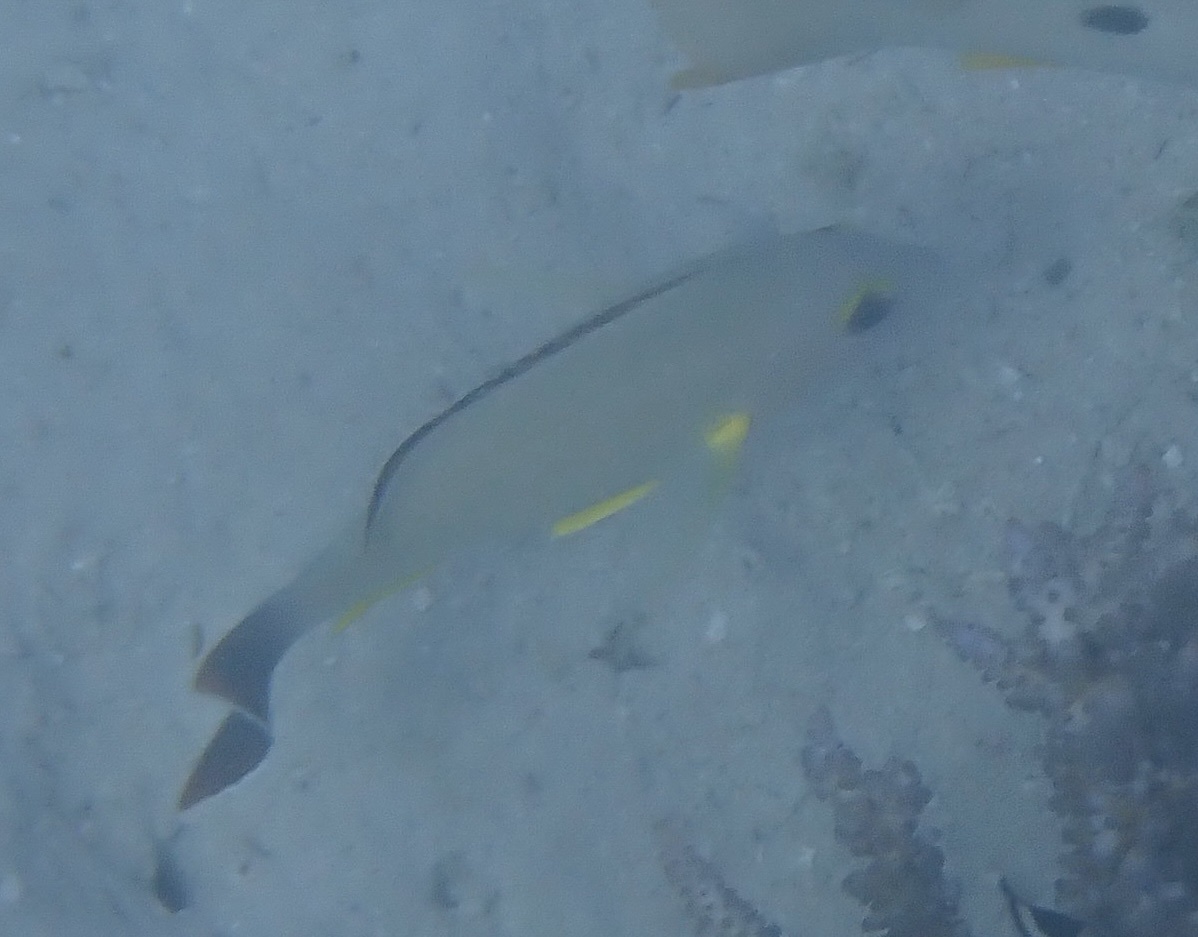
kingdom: Animalia
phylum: Chordata
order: Perciformes
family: Lutjanidae
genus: Lutjanus
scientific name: Lutjanus fulvus
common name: Blacktail snapper
